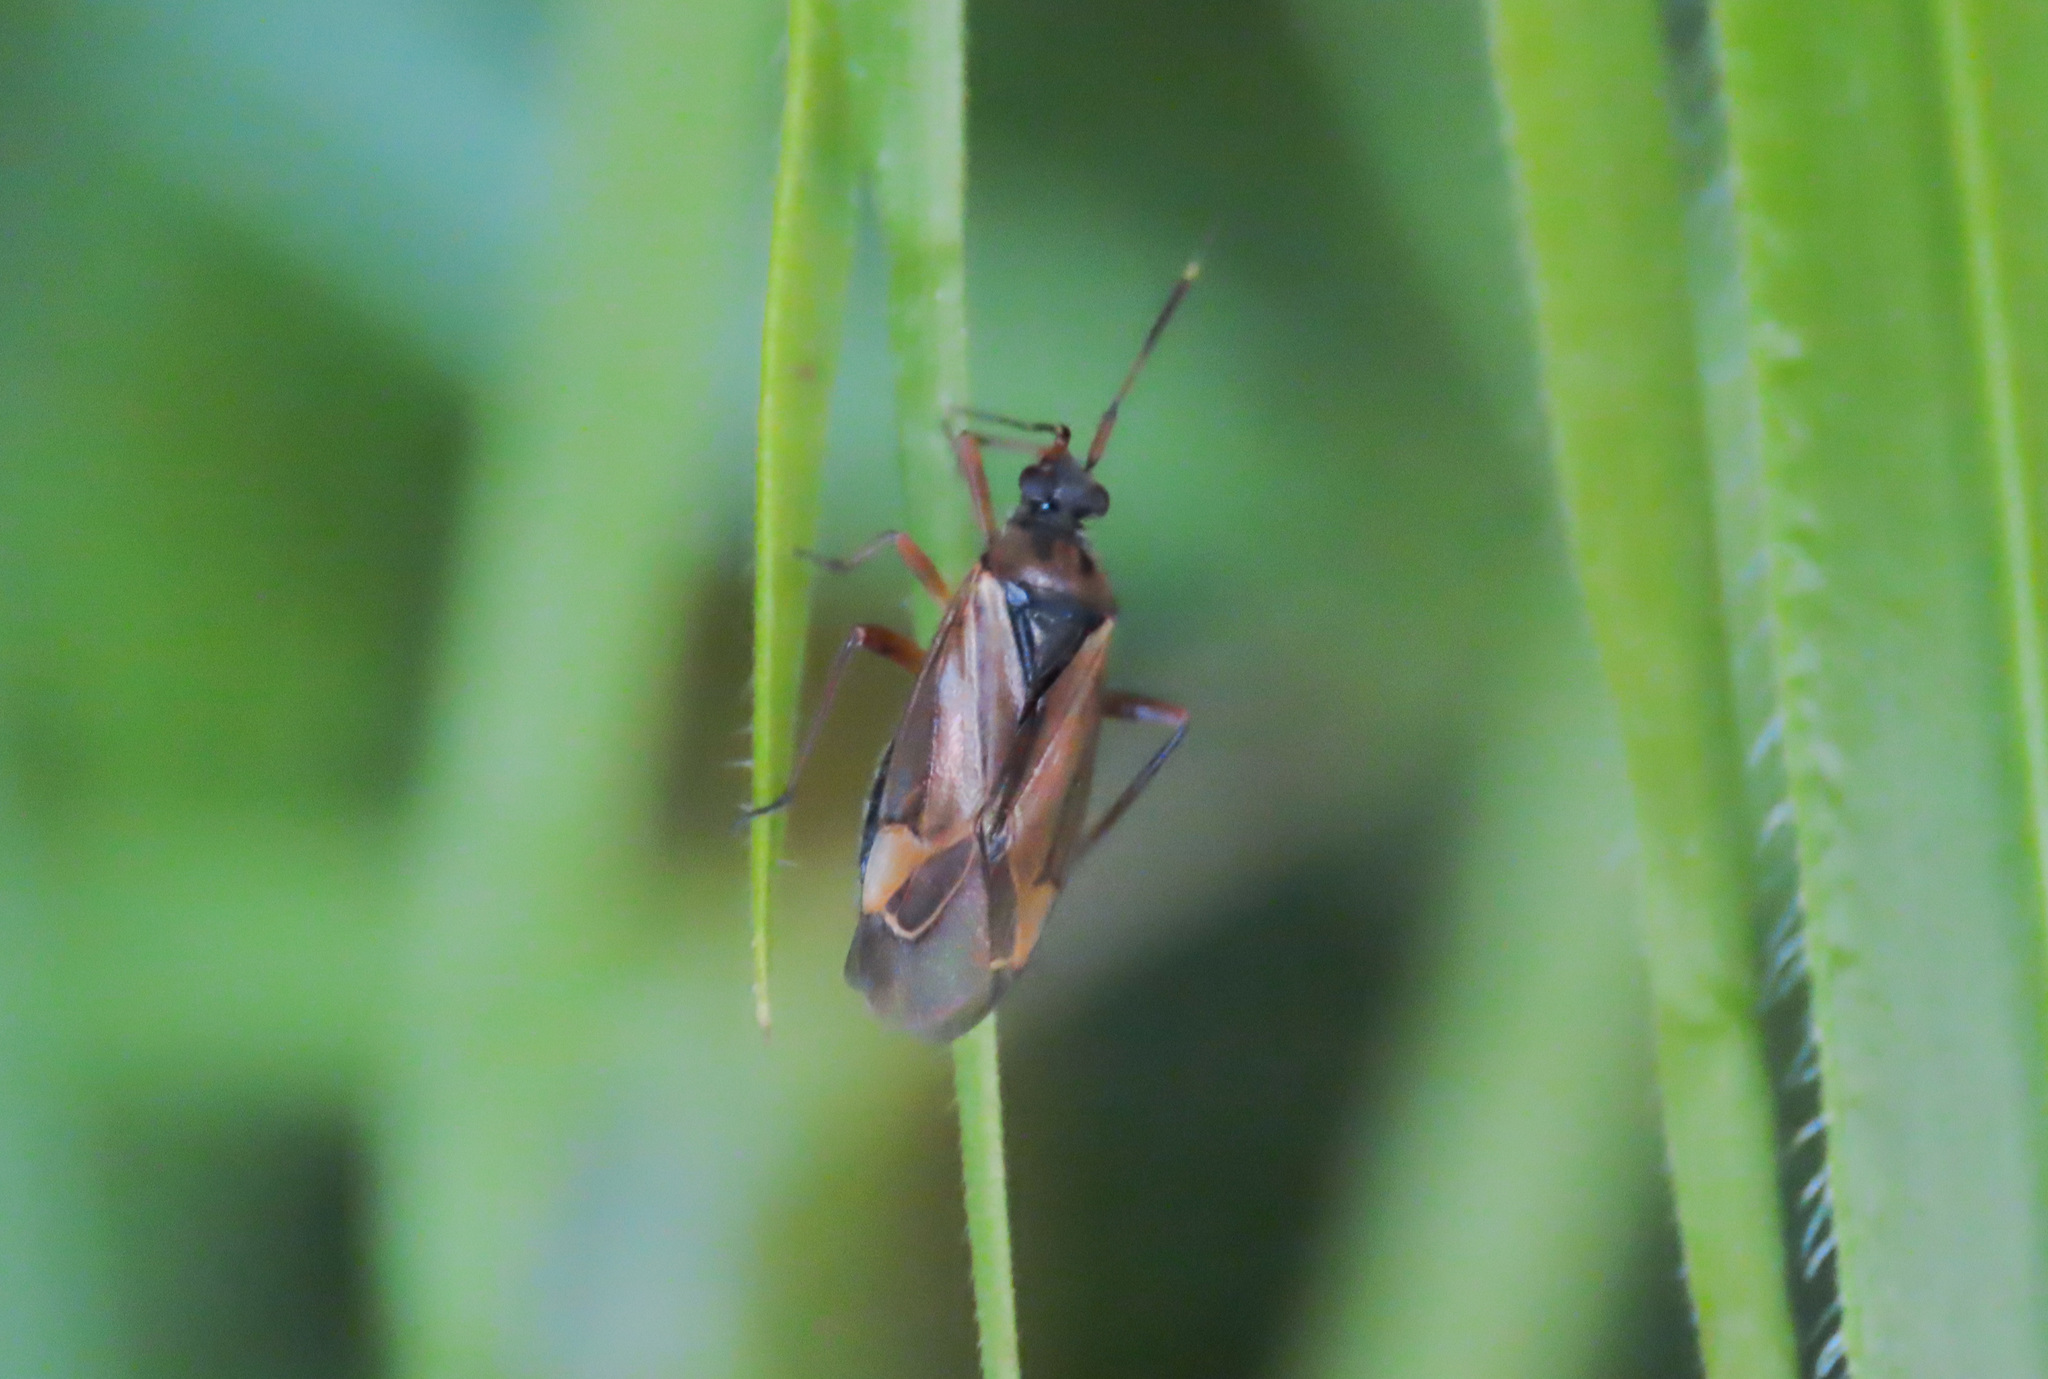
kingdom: Animalia
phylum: Arthropoda
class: Insecta
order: Hemiptera
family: Miridae
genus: Horwathia
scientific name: Horwathia lineolata
